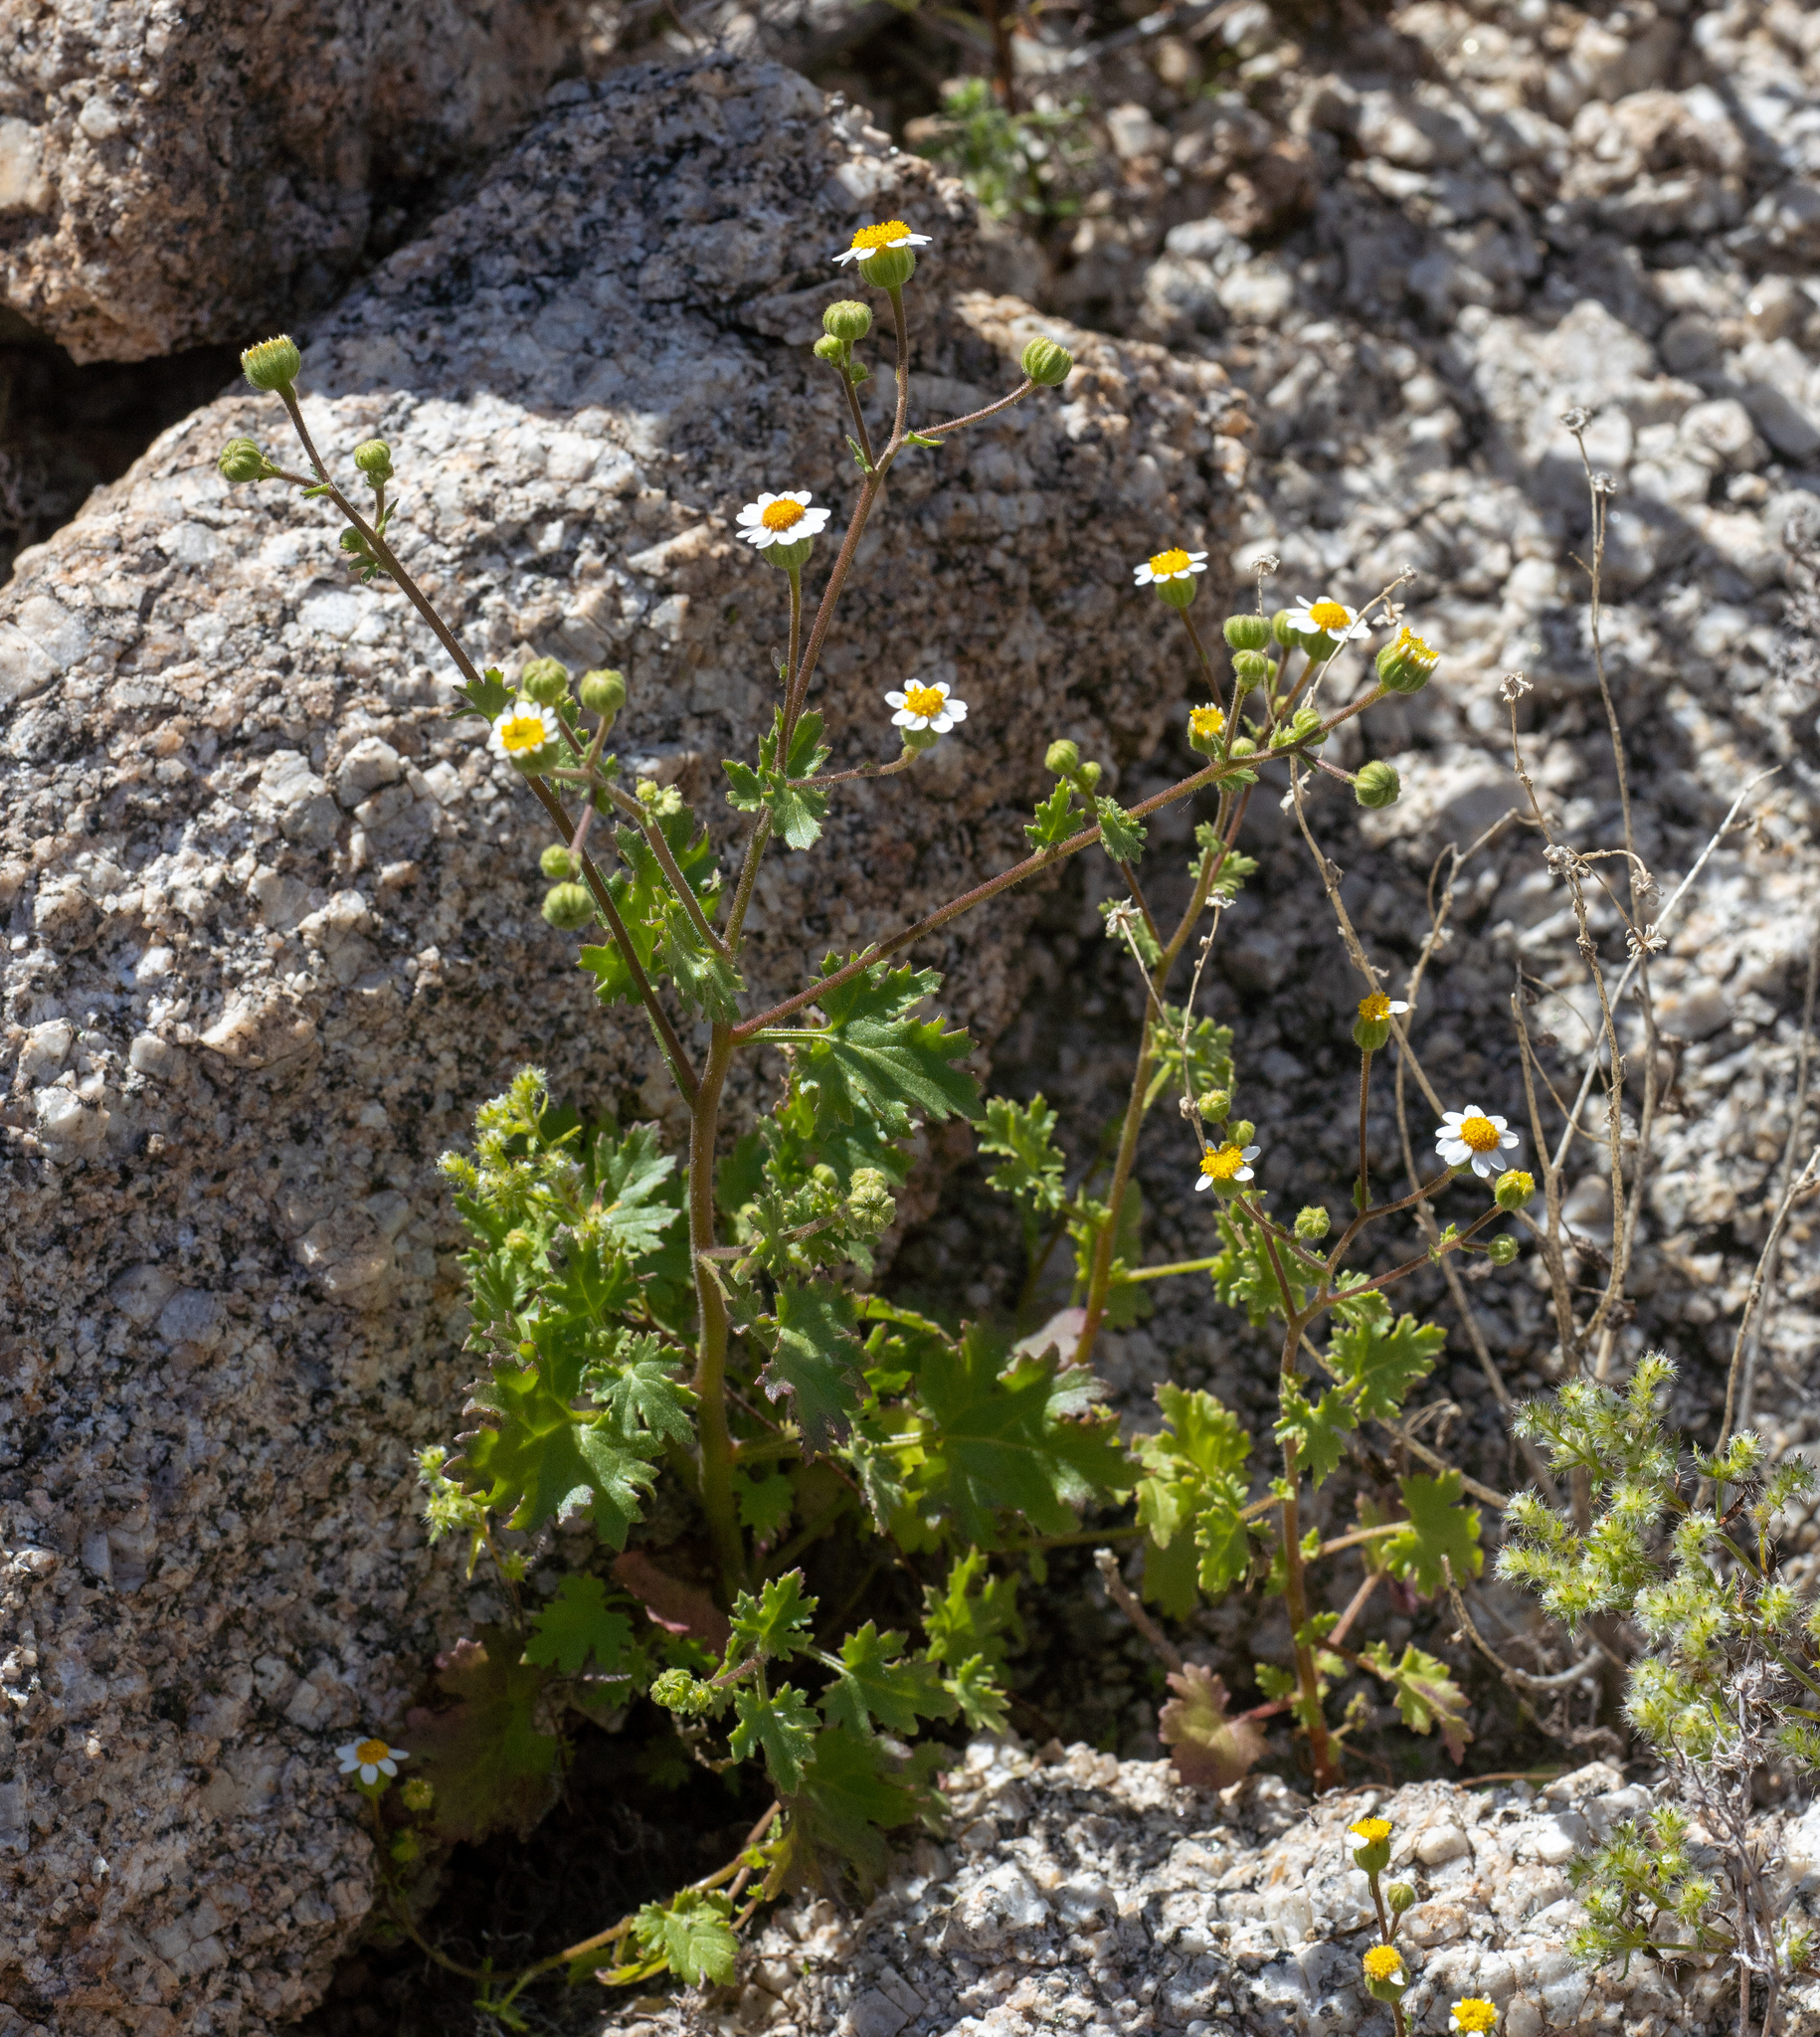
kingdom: Plantae
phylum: Tracheophyta
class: Magnoliopsida
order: Asterales
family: Asteraceae
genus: Laphamia
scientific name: Laphamia emoryi
